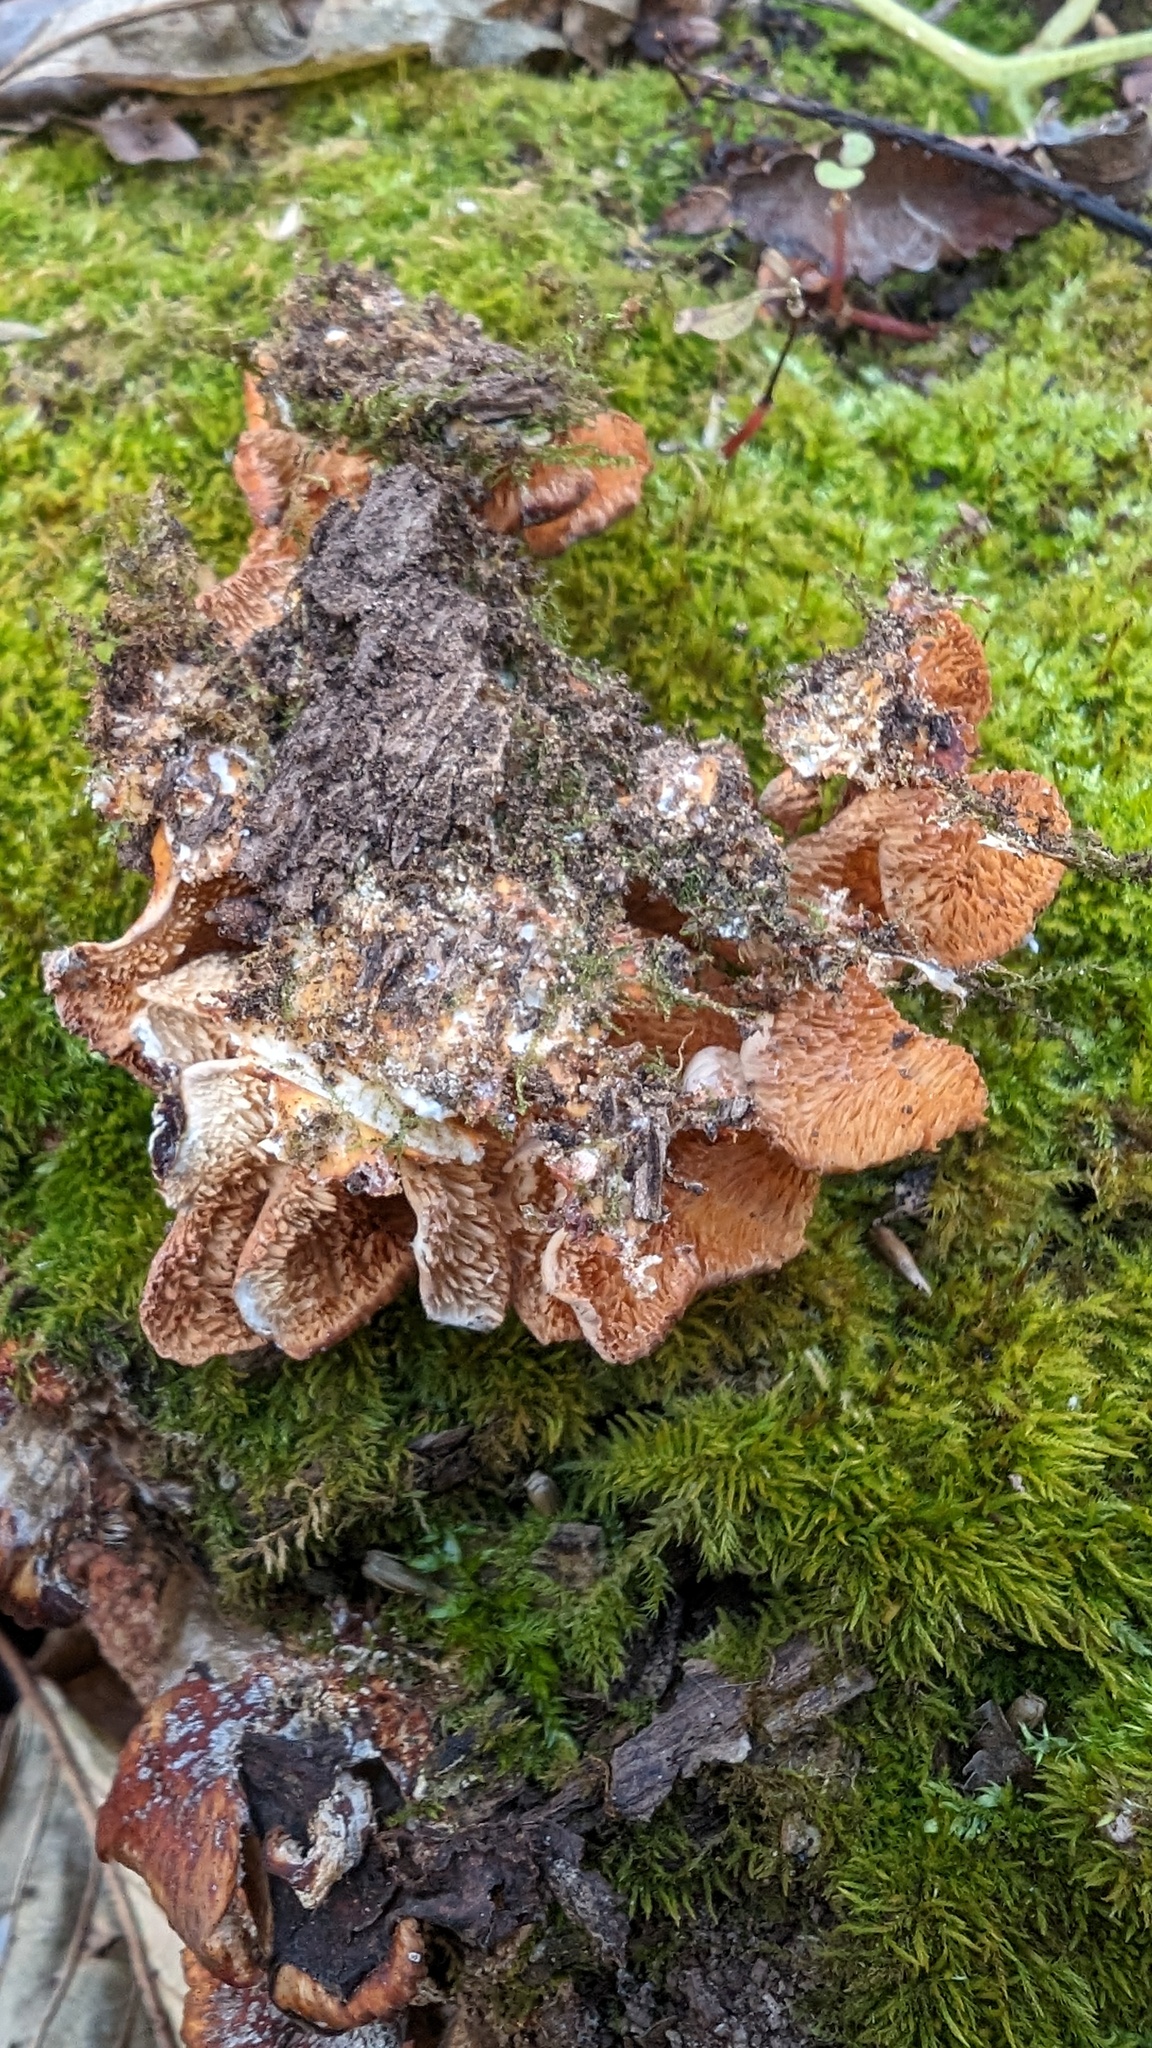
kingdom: Fungi
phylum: Basidiomycota
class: Agaricomycetes
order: Polyporales
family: Irpicaceae
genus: Irpex
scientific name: Irpex consors
